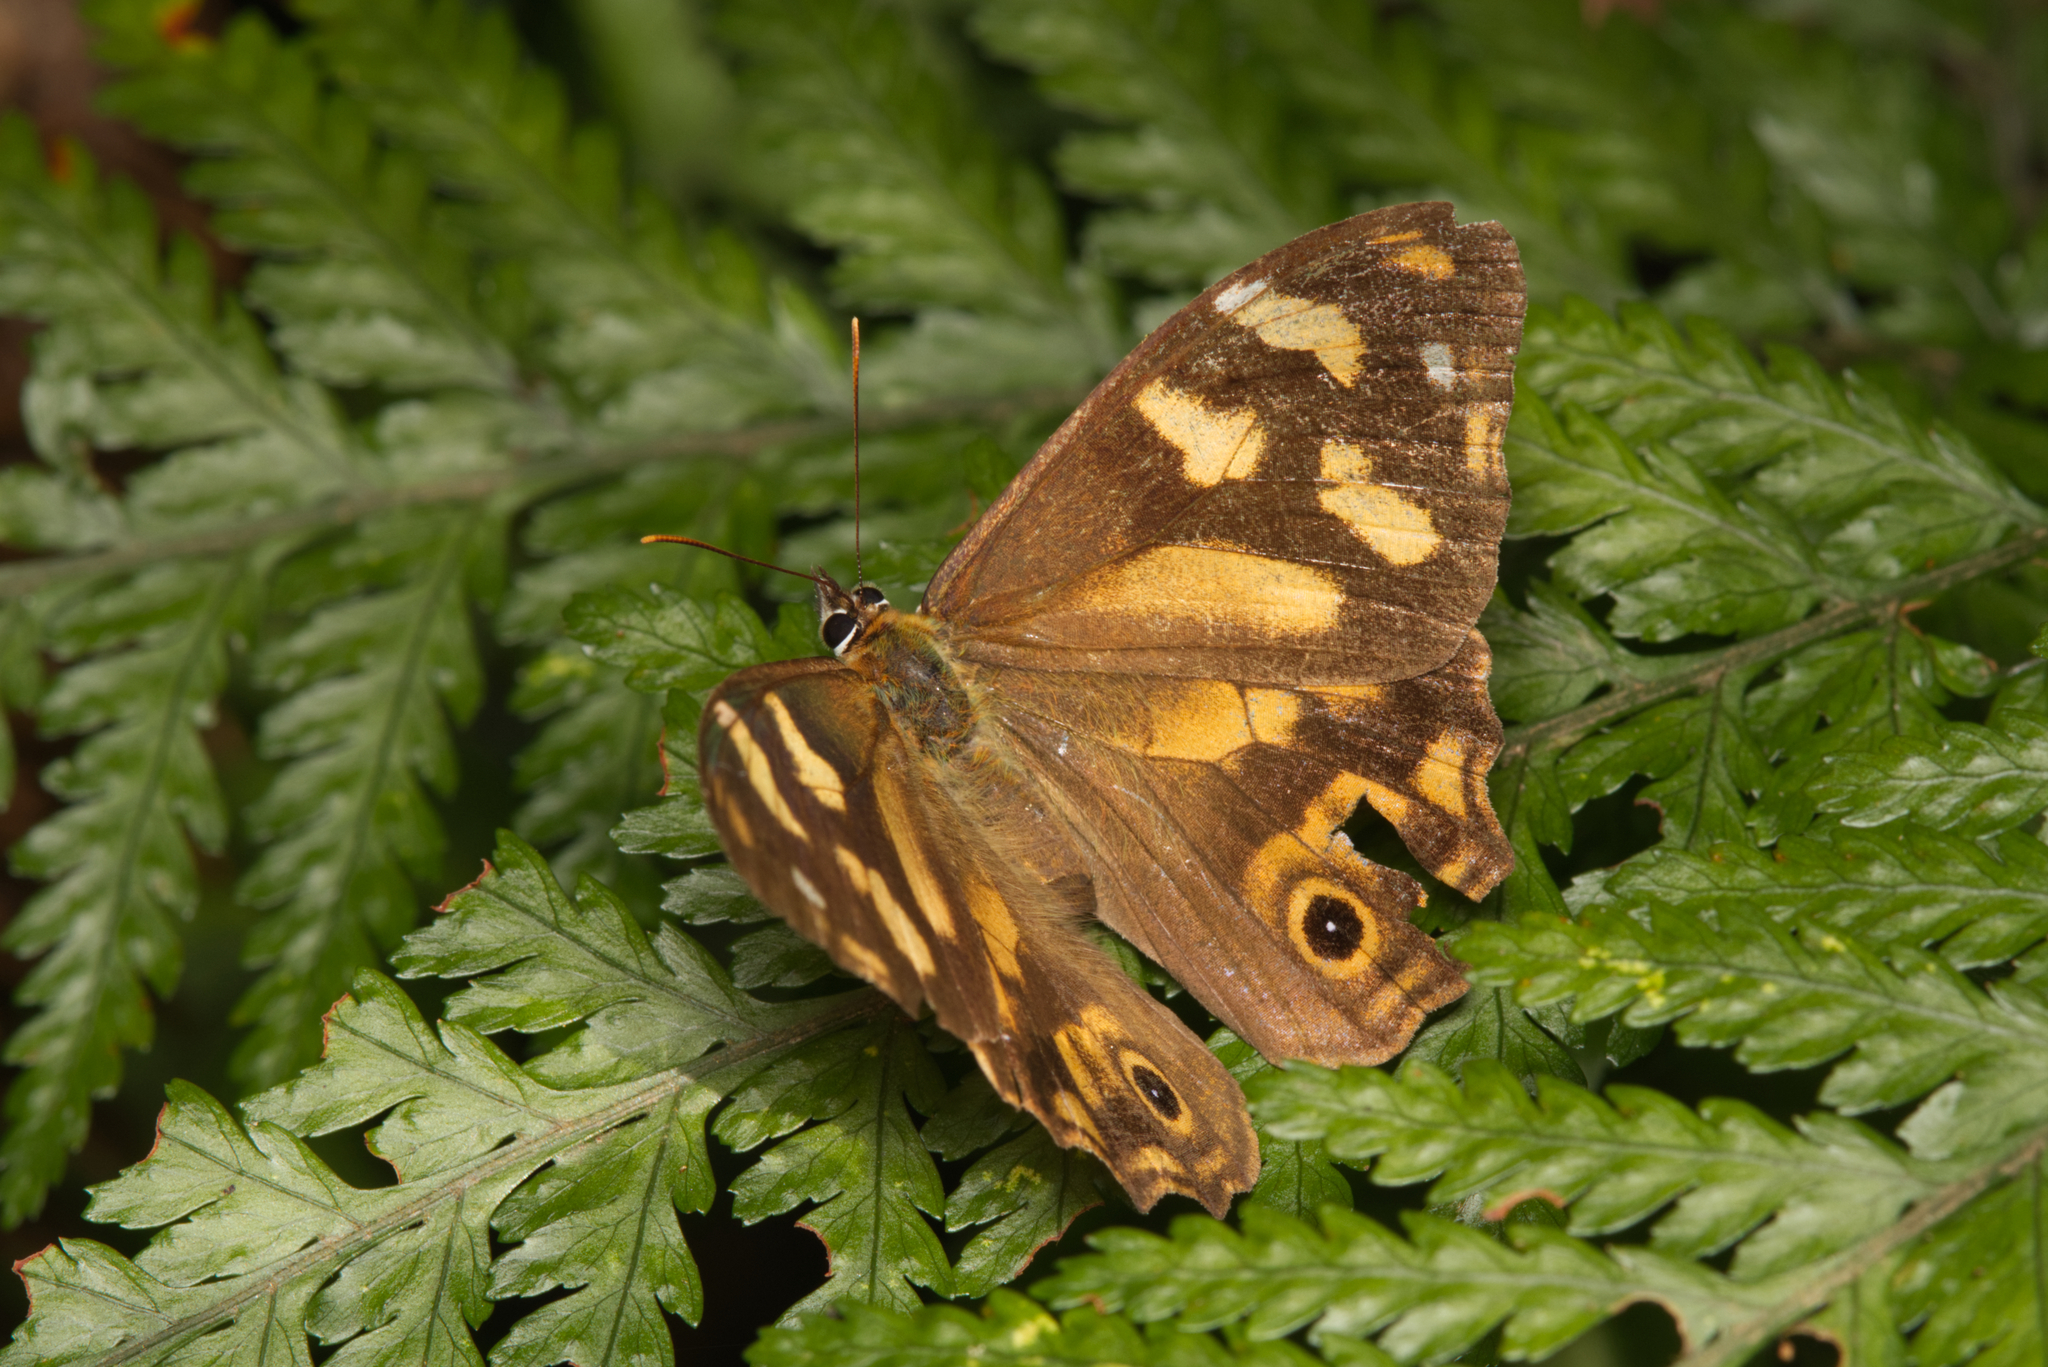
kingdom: Animalia
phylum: Arthropoda
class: Insecta
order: Lepidoptera
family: Nymphalidae
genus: Heteronympha
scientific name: Heteronympha banksii
